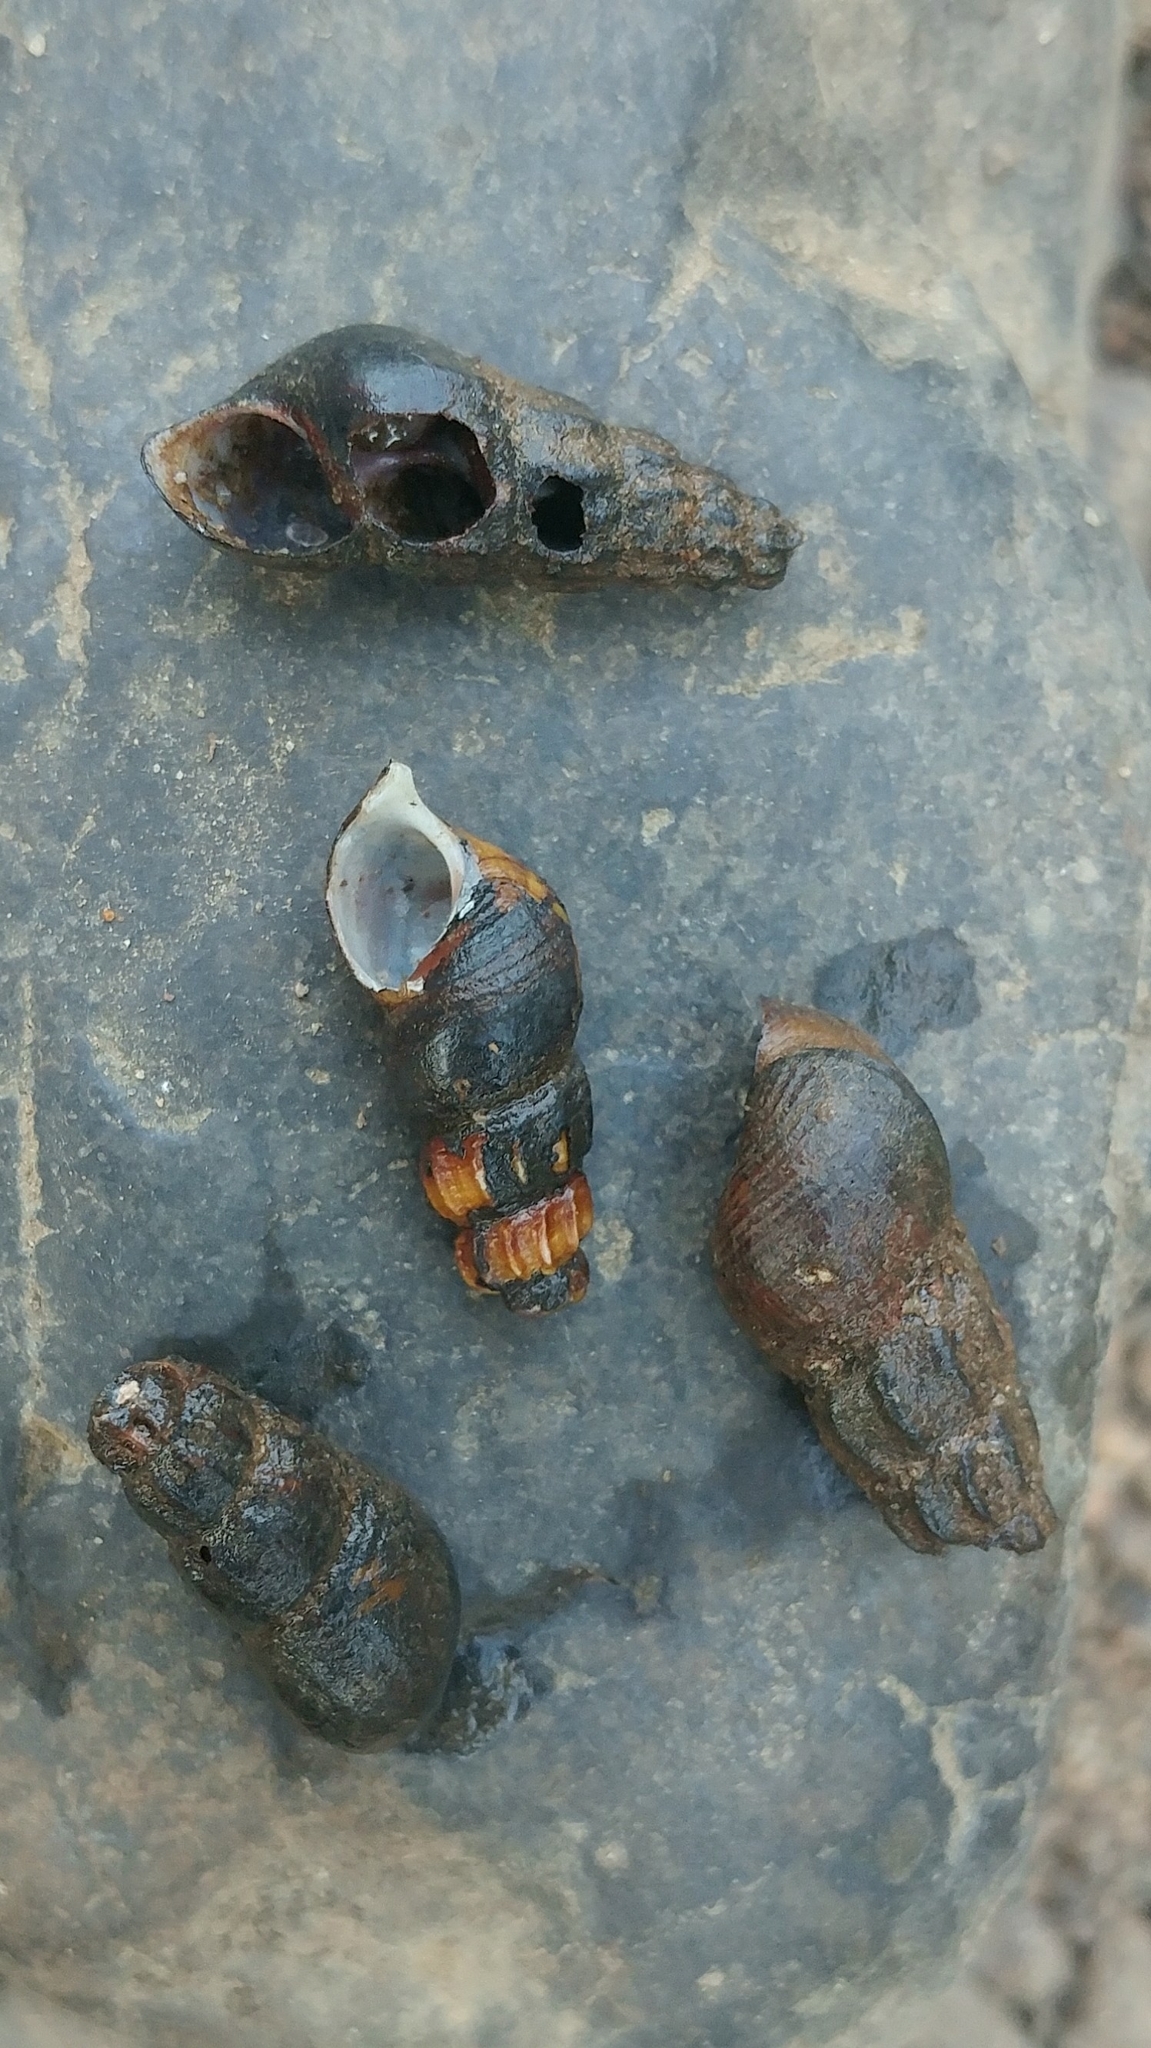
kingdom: Animalia
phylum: Mollusca
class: Gastropoda
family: Semisulcospiridae
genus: Juga
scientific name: Juga plicifera
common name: Pleated juga
